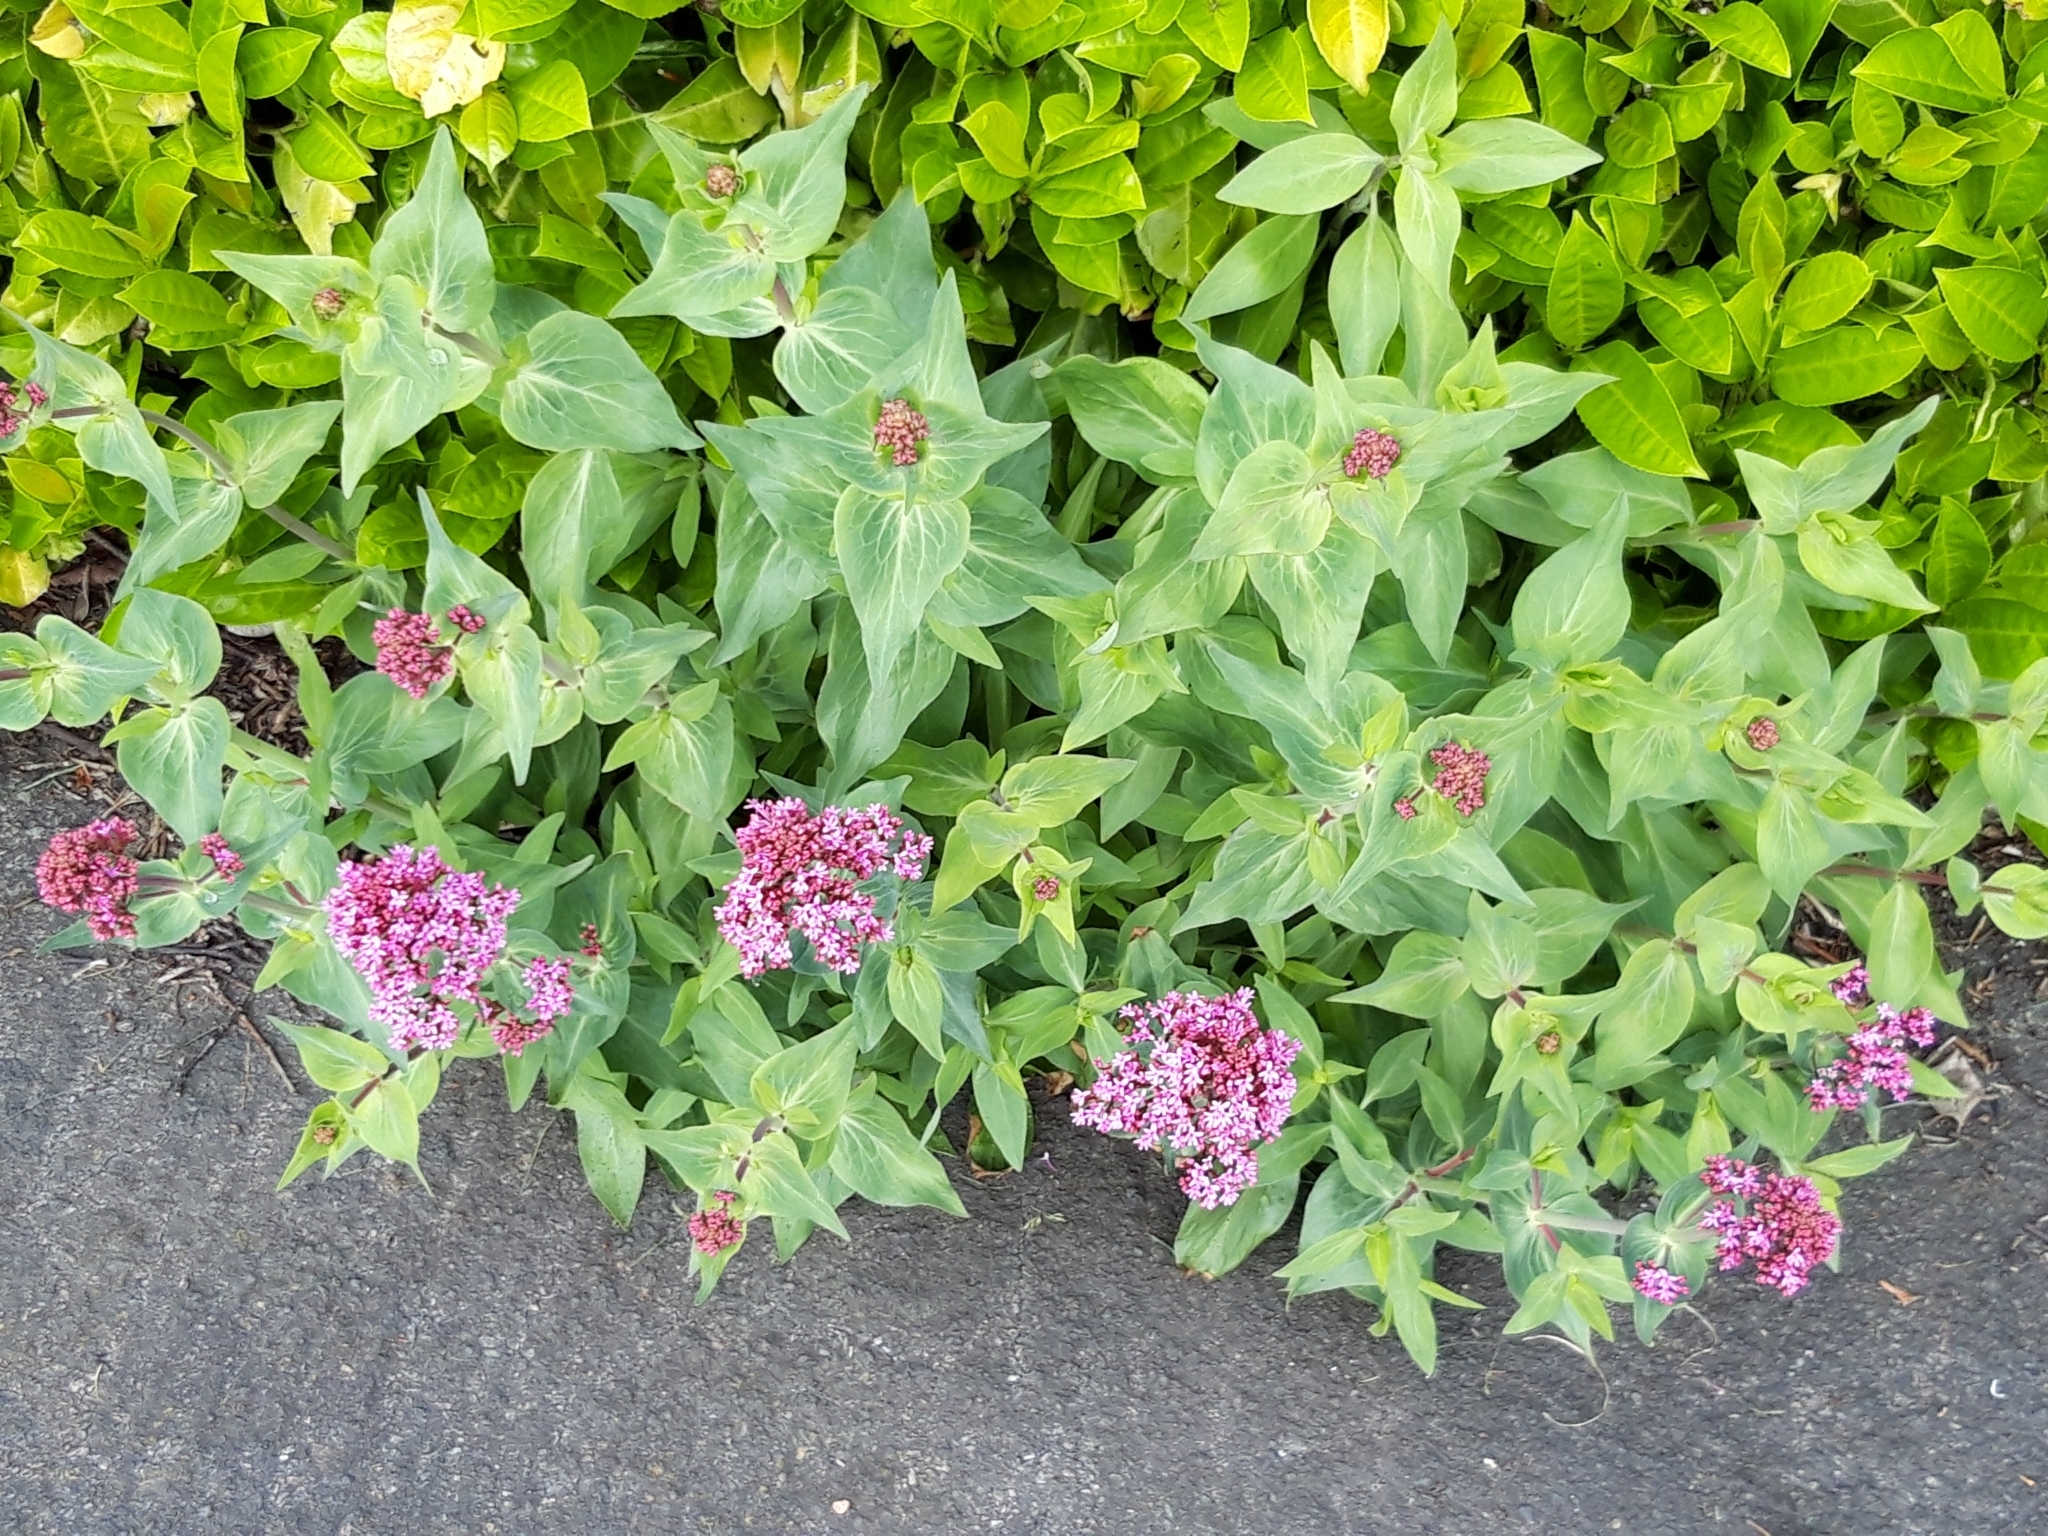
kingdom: Plantae
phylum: Tracheophyta
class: Magnoliopsida
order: Dipsacales
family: Caprifoliaceae
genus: Centranthus
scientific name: Centranthus ruber
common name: Red valerian
